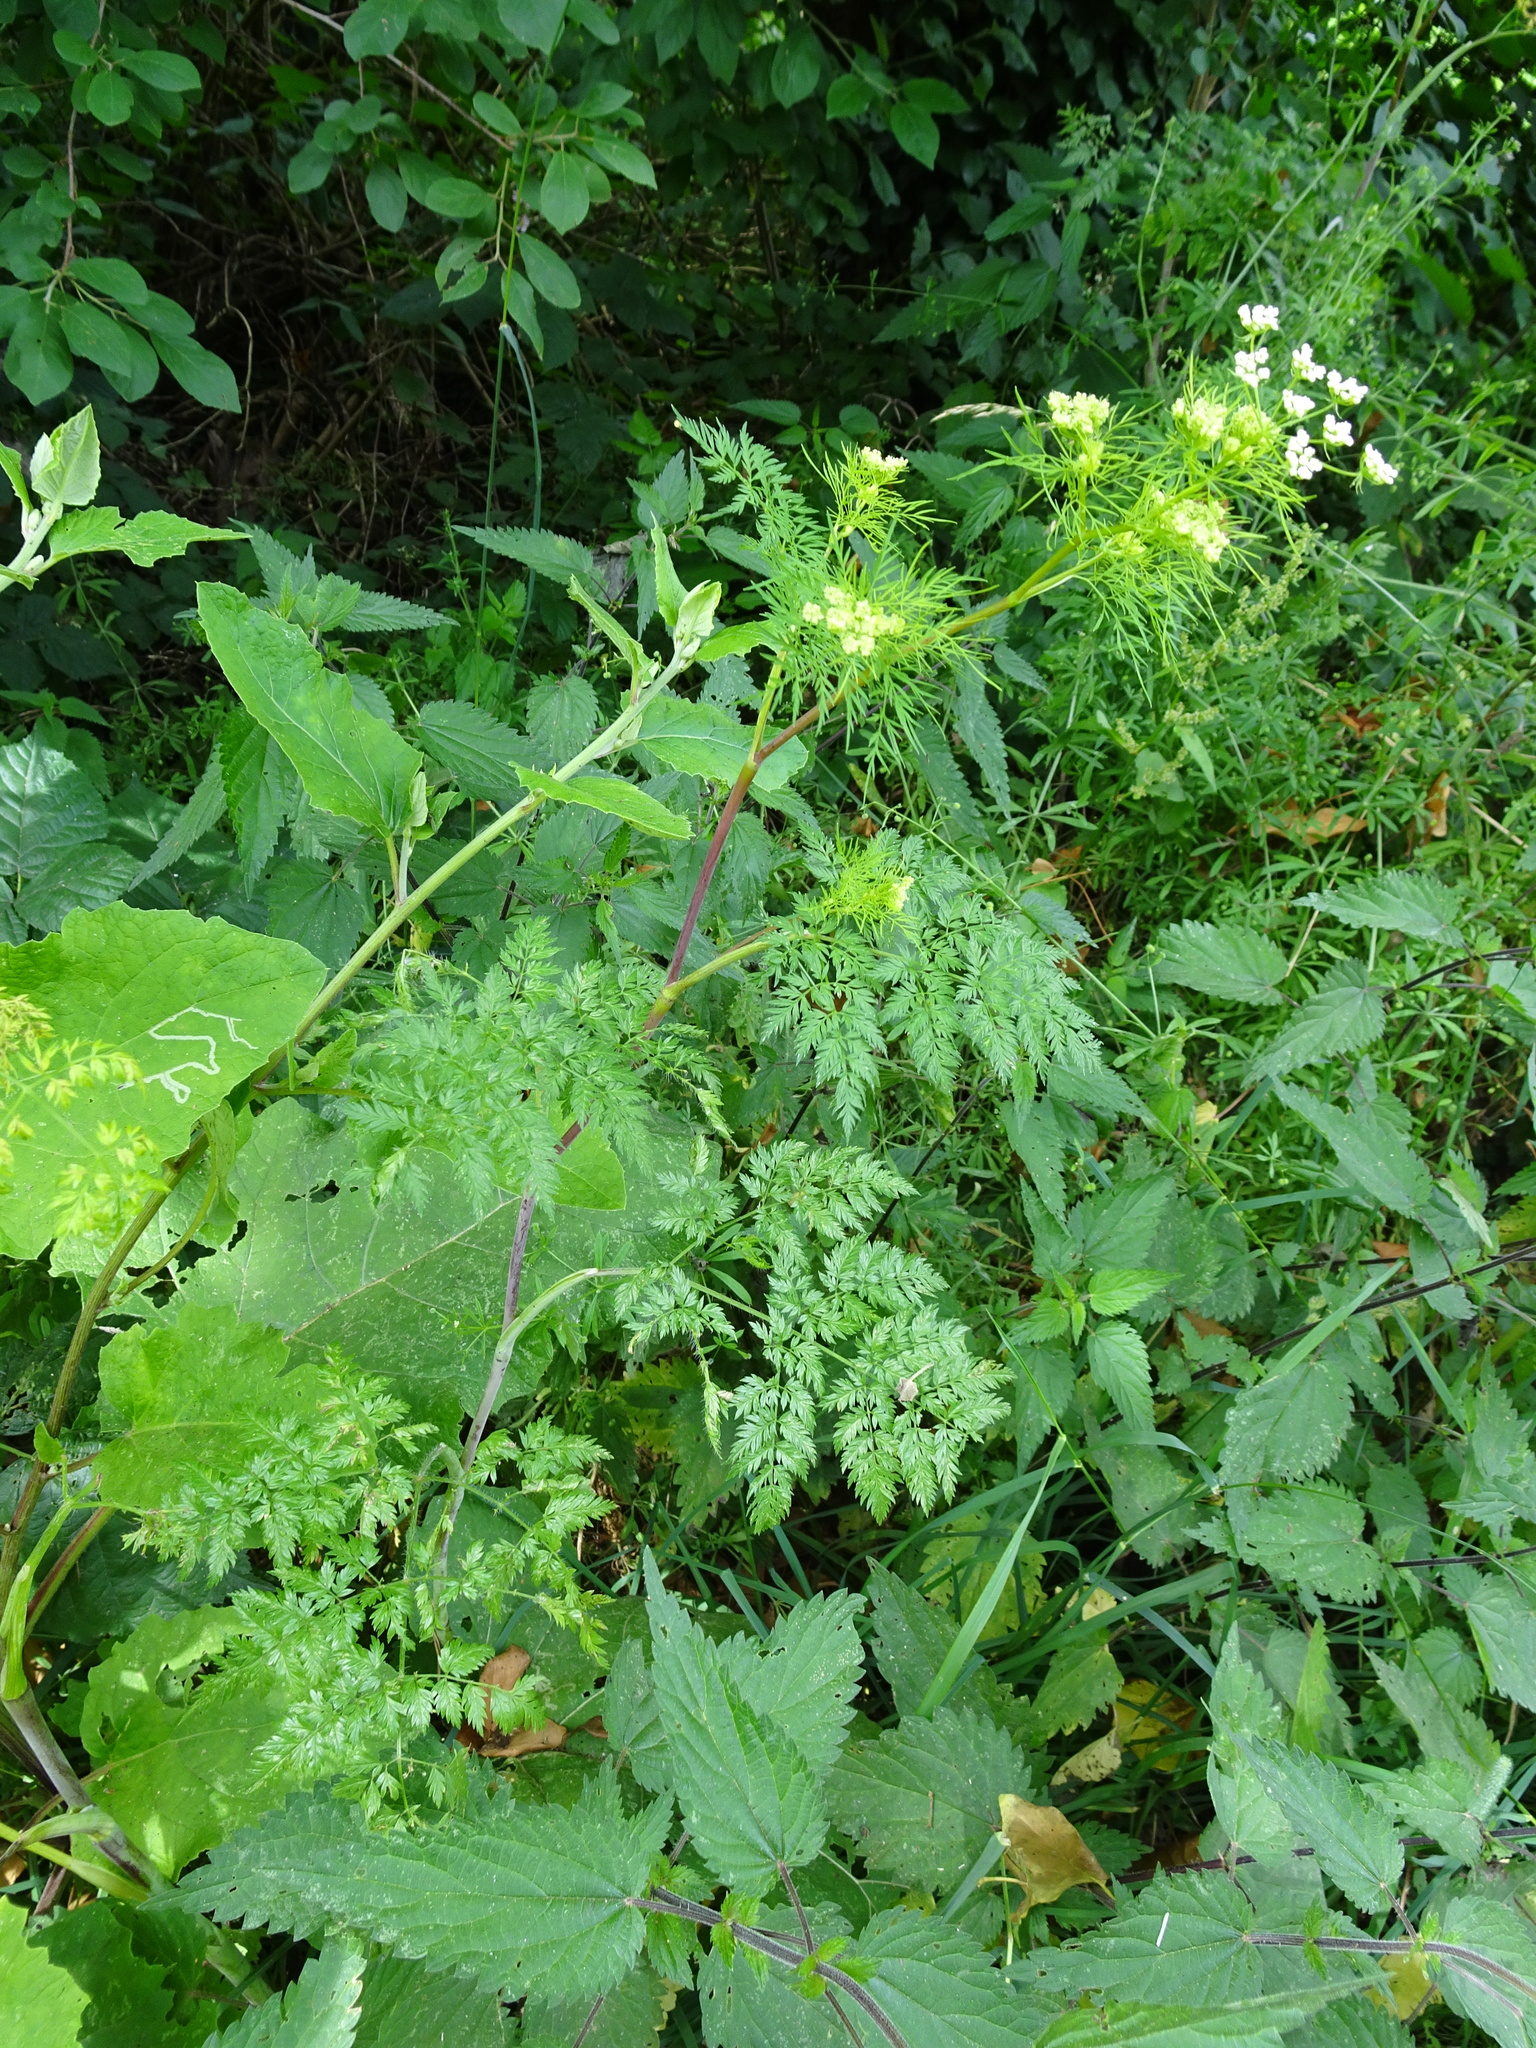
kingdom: Plantae
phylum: Tracheophyta
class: Magnoliopsida
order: Apiales
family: Apiaceae
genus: Chaerophyllum
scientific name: Chaerophyllum bulbosum
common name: Bulbous chervil
